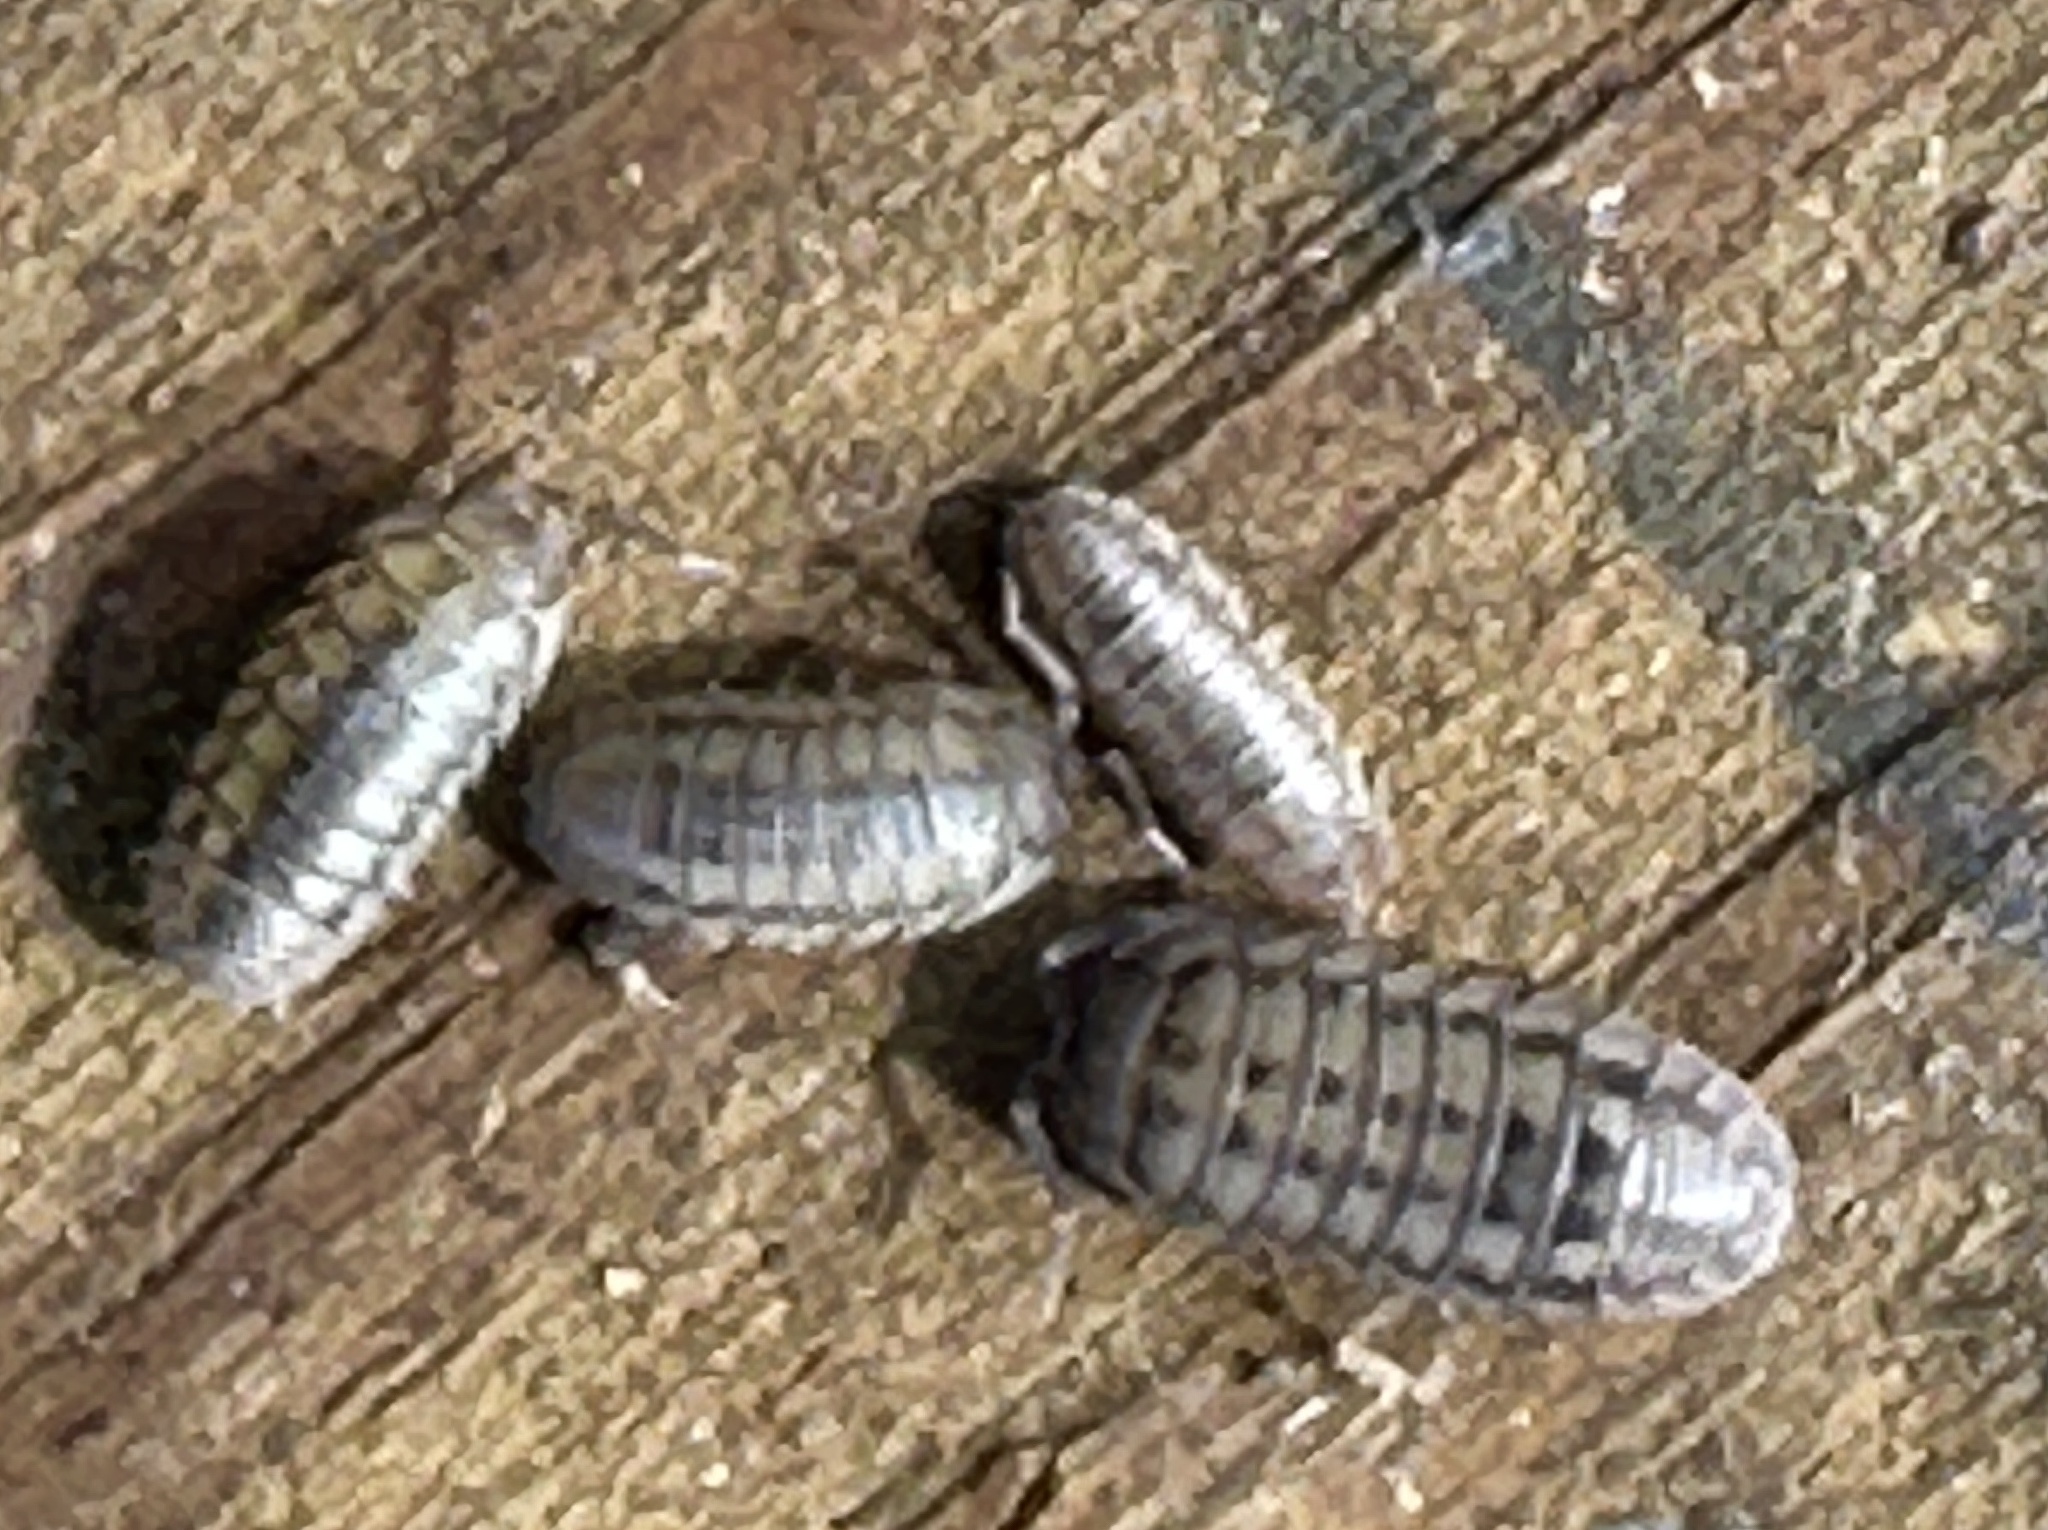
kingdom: Animalia
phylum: Arthropoda
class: Malacostraca
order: Isopoda
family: Armadillidiidae
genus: Armadillidium
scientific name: Armadillidium nasatum
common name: Isopod
